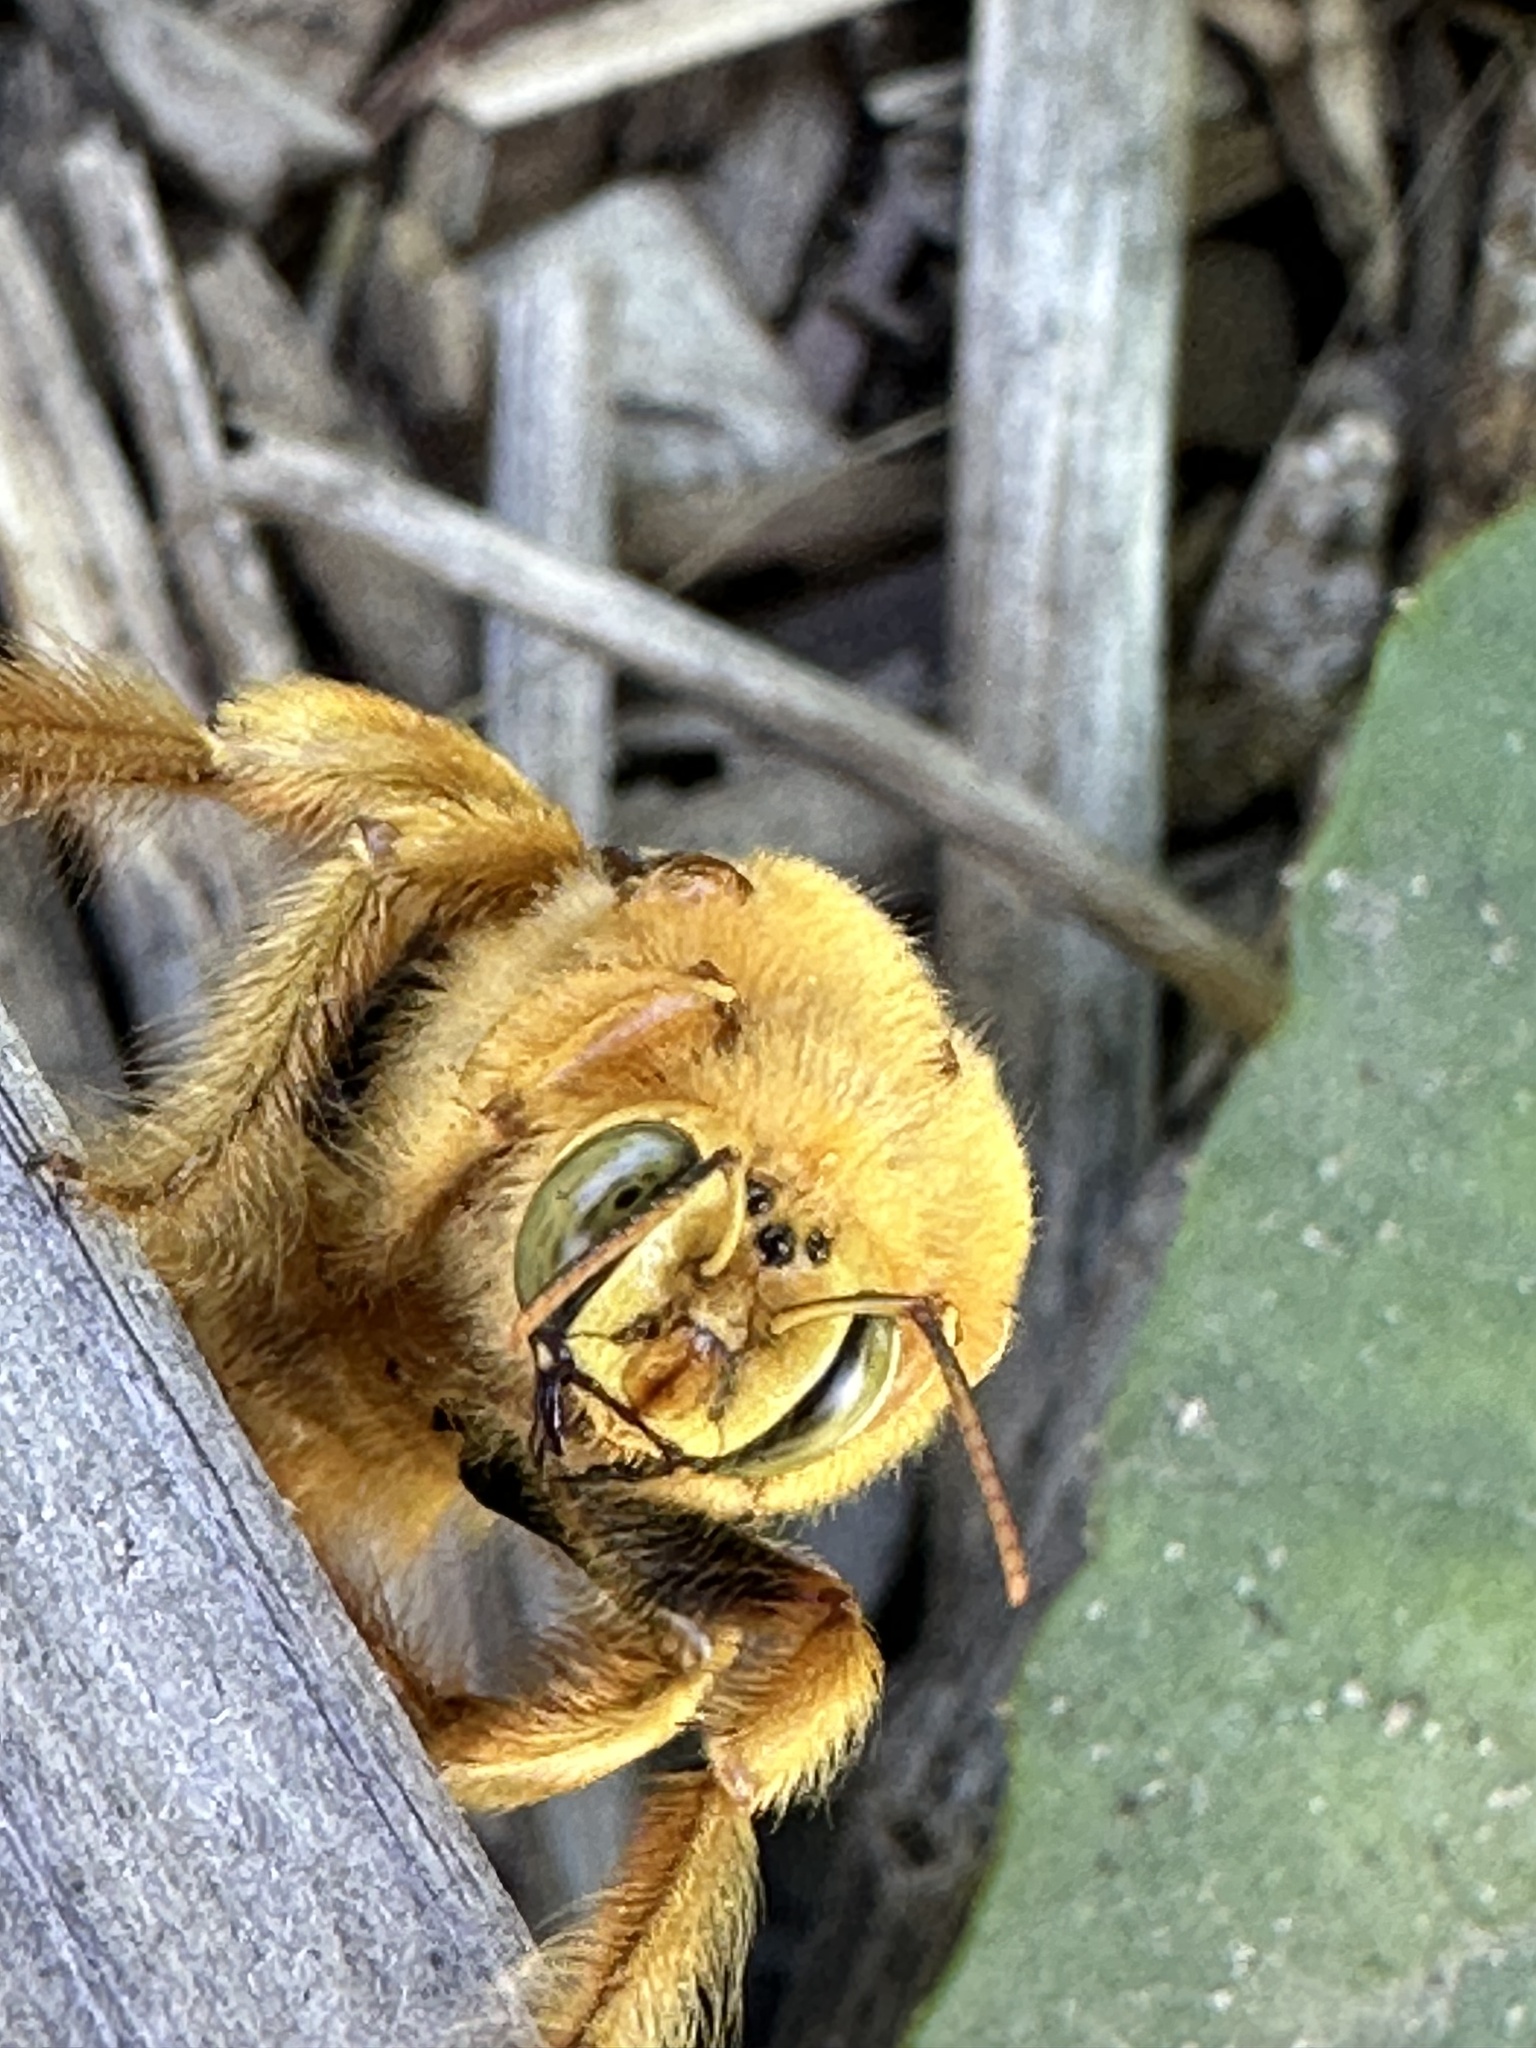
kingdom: Animalia
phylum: Arthropoda
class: Insecta
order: Hymenoptera
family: Apidae
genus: Xylocopa
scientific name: Xylocopa sonorina
